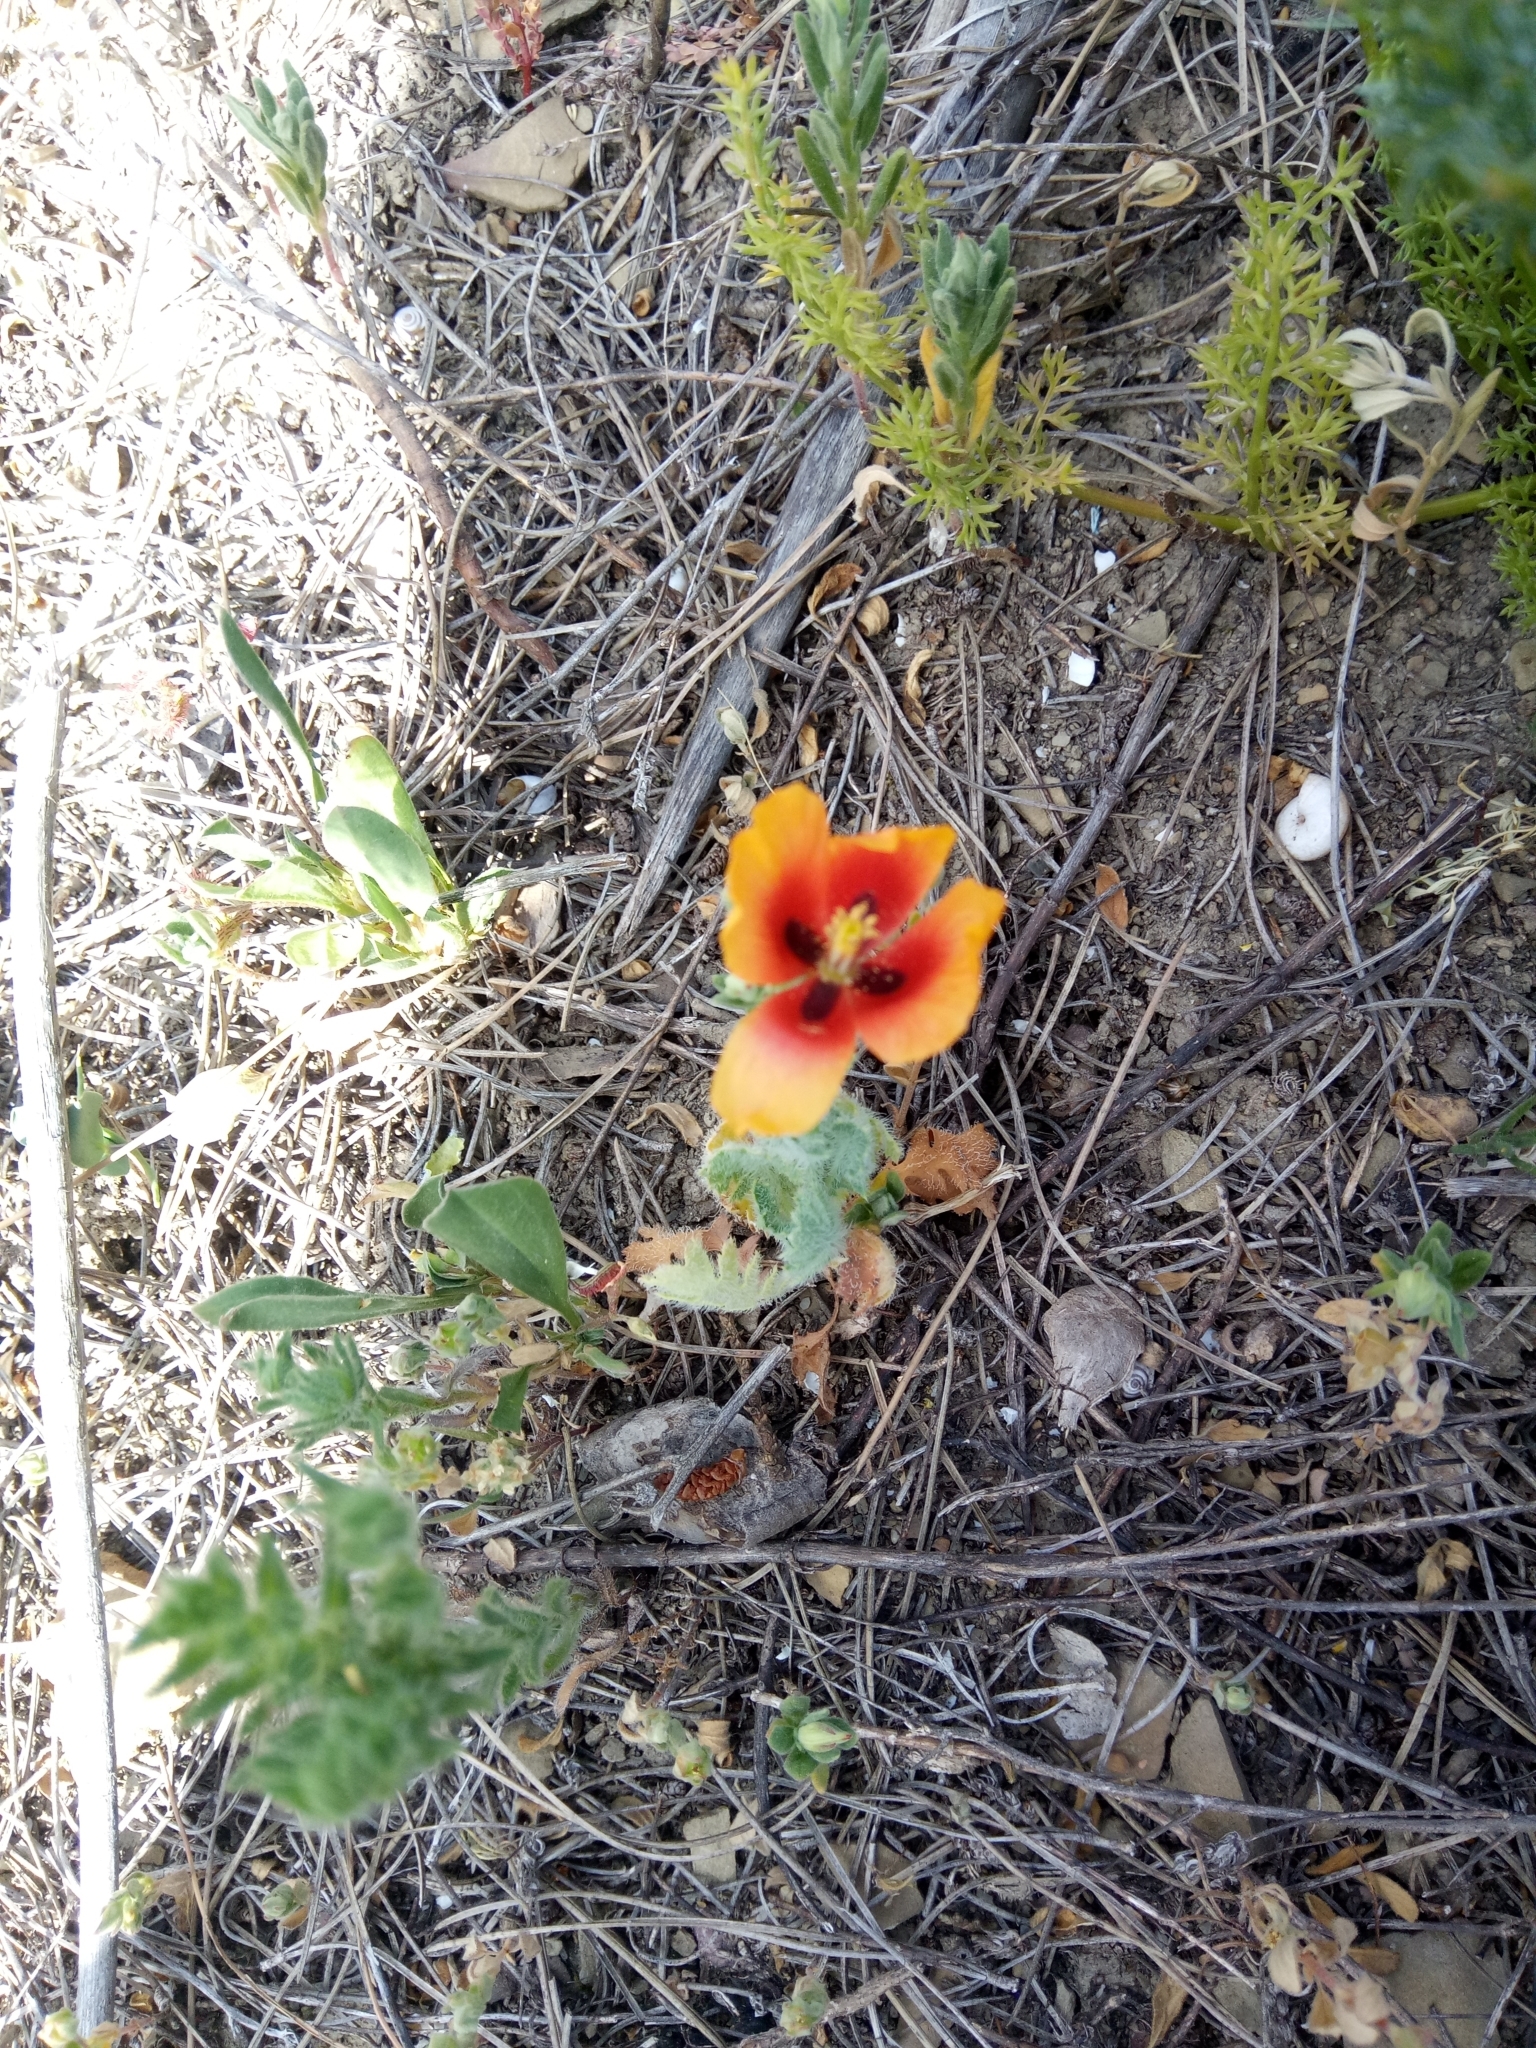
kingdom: Plantae
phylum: Tracheophyta
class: Magnoliopsida
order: Ranunculales
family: Papaveraceae
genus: Glaucium
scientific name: Glaucium corniculatum
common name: Red horned-poppy
